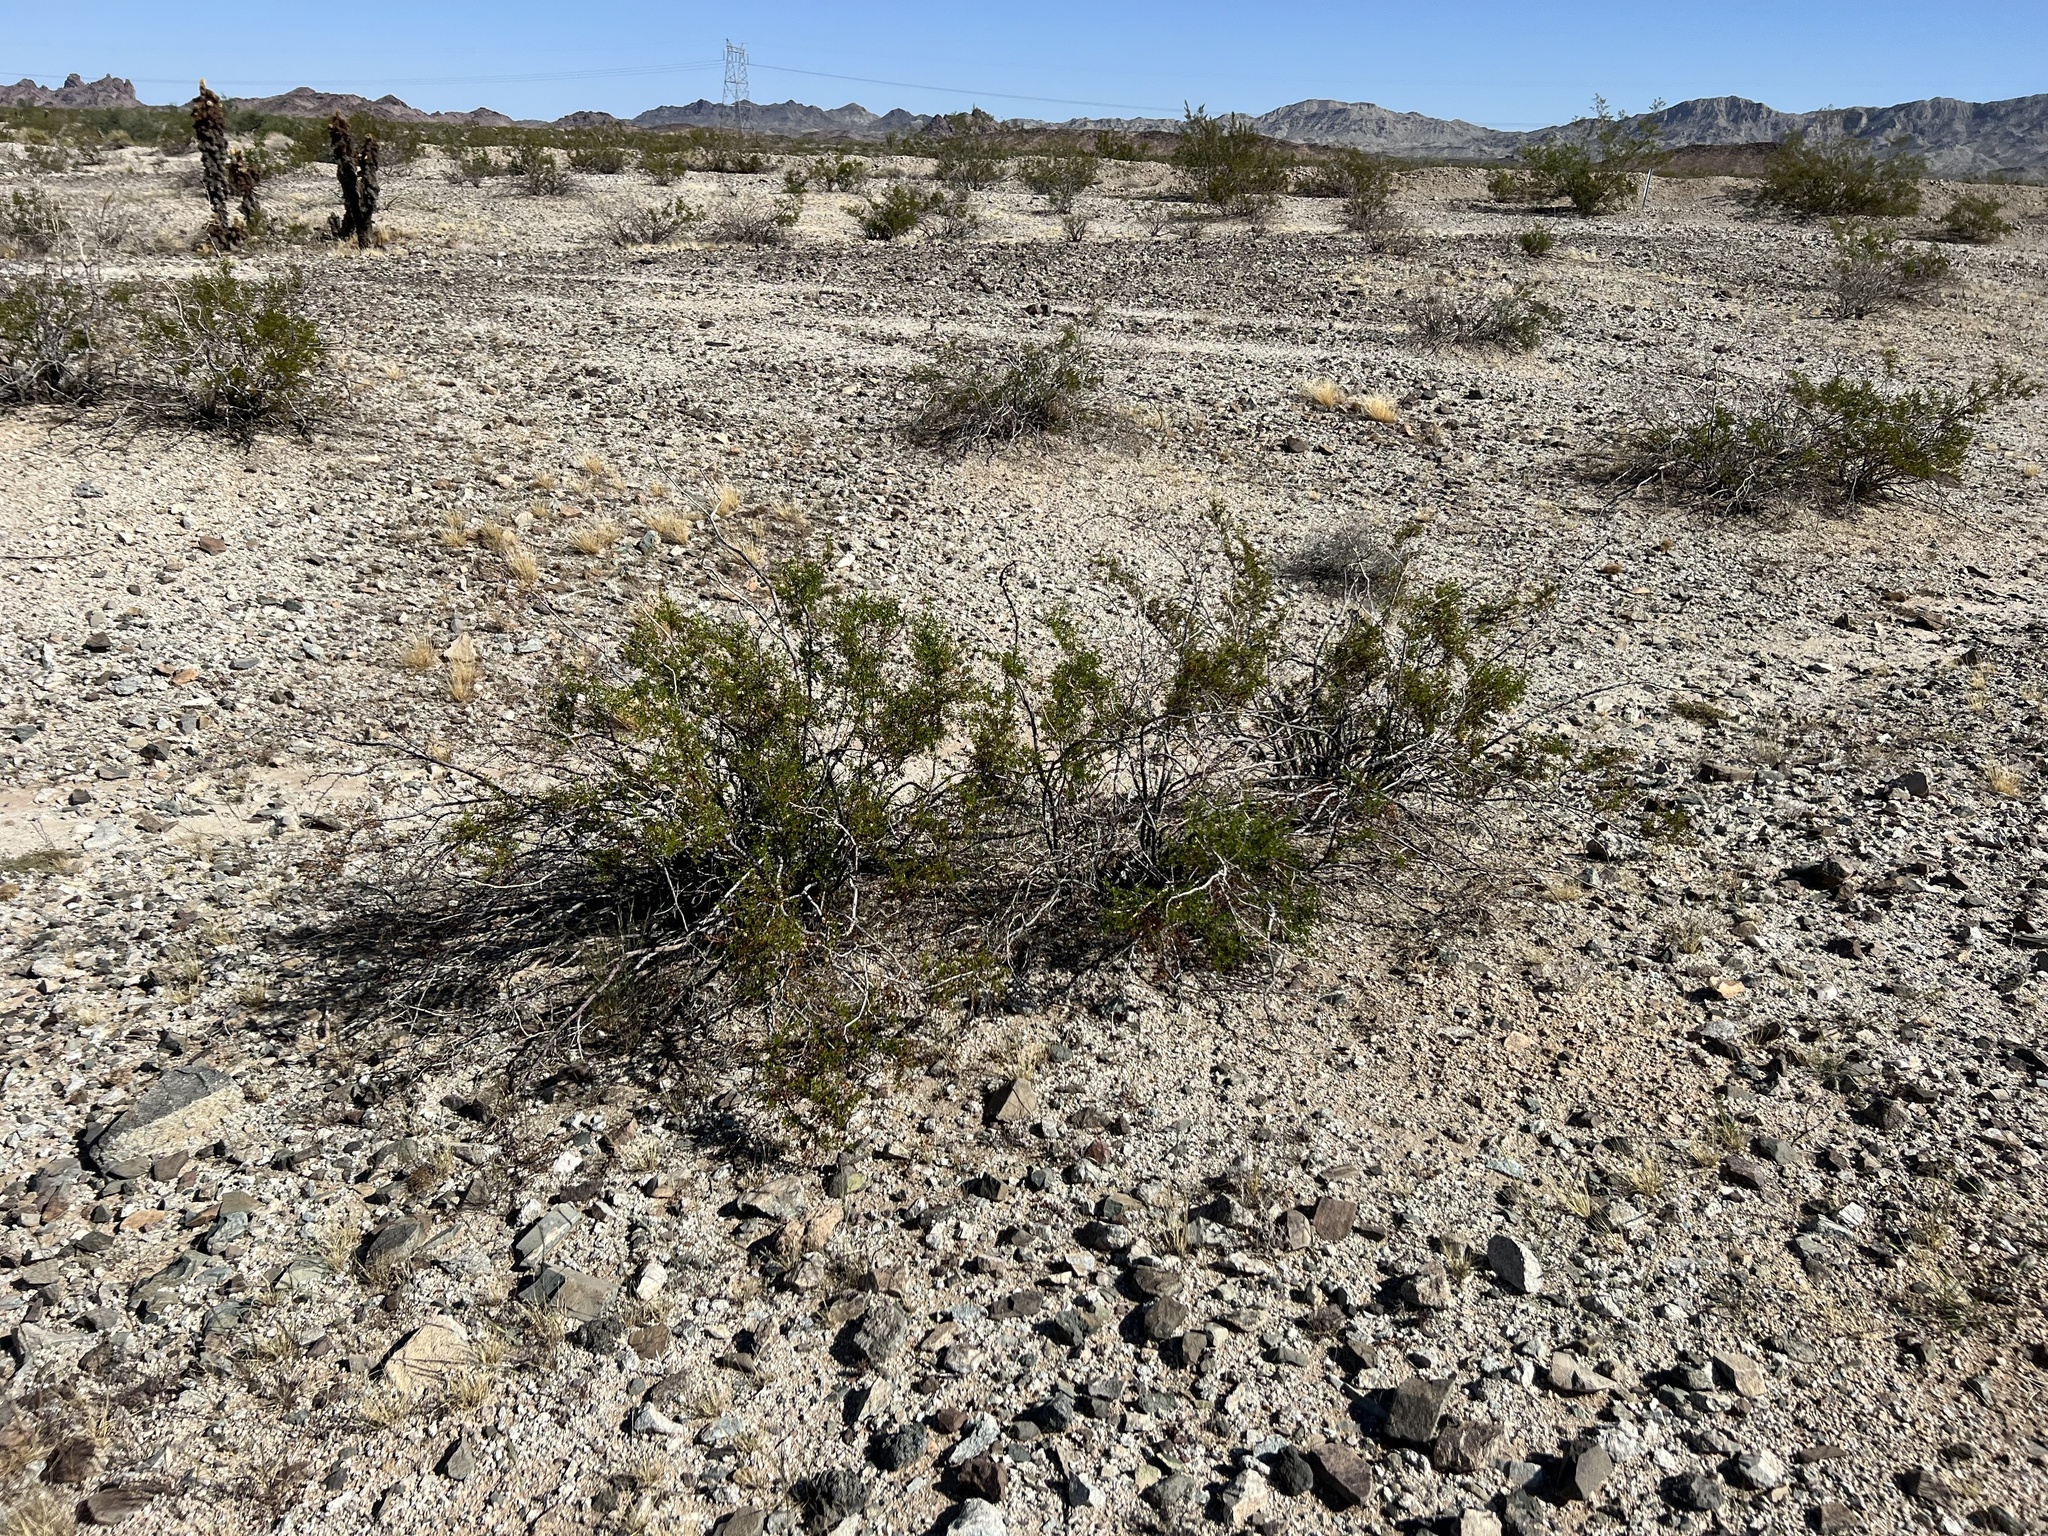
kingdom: Plantae
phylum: Tracheophyta
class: Magnoliopsida
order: Zygophyllales
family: Zygophyllaceae
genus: Larrea
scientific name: Larrea tridentata
